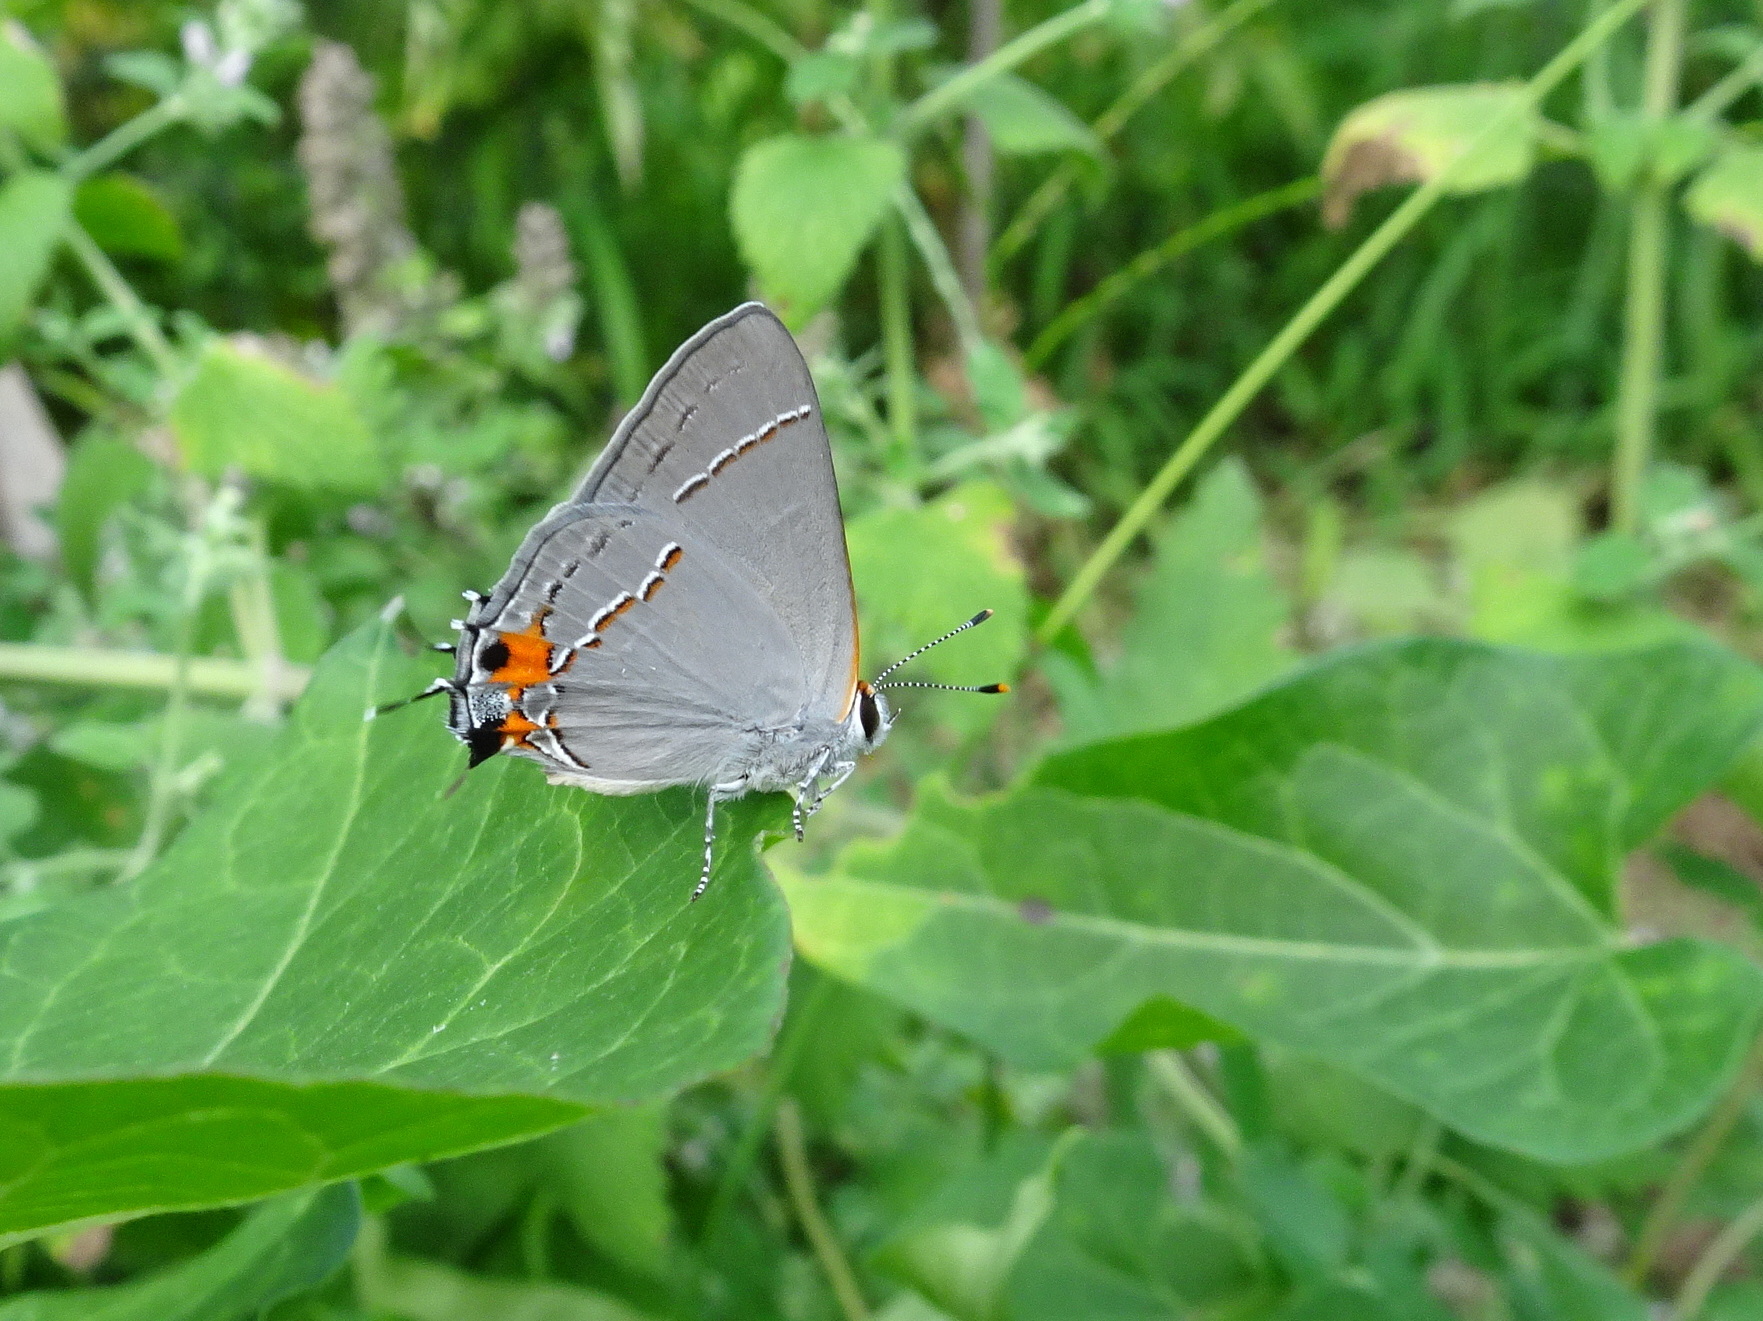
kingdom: Animalia
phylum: Arthropoda
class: Insecta
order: Lepidoptera
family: Lycaenidae
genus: Strymon
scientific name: Strymon melinus
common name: Gray hairstreak
